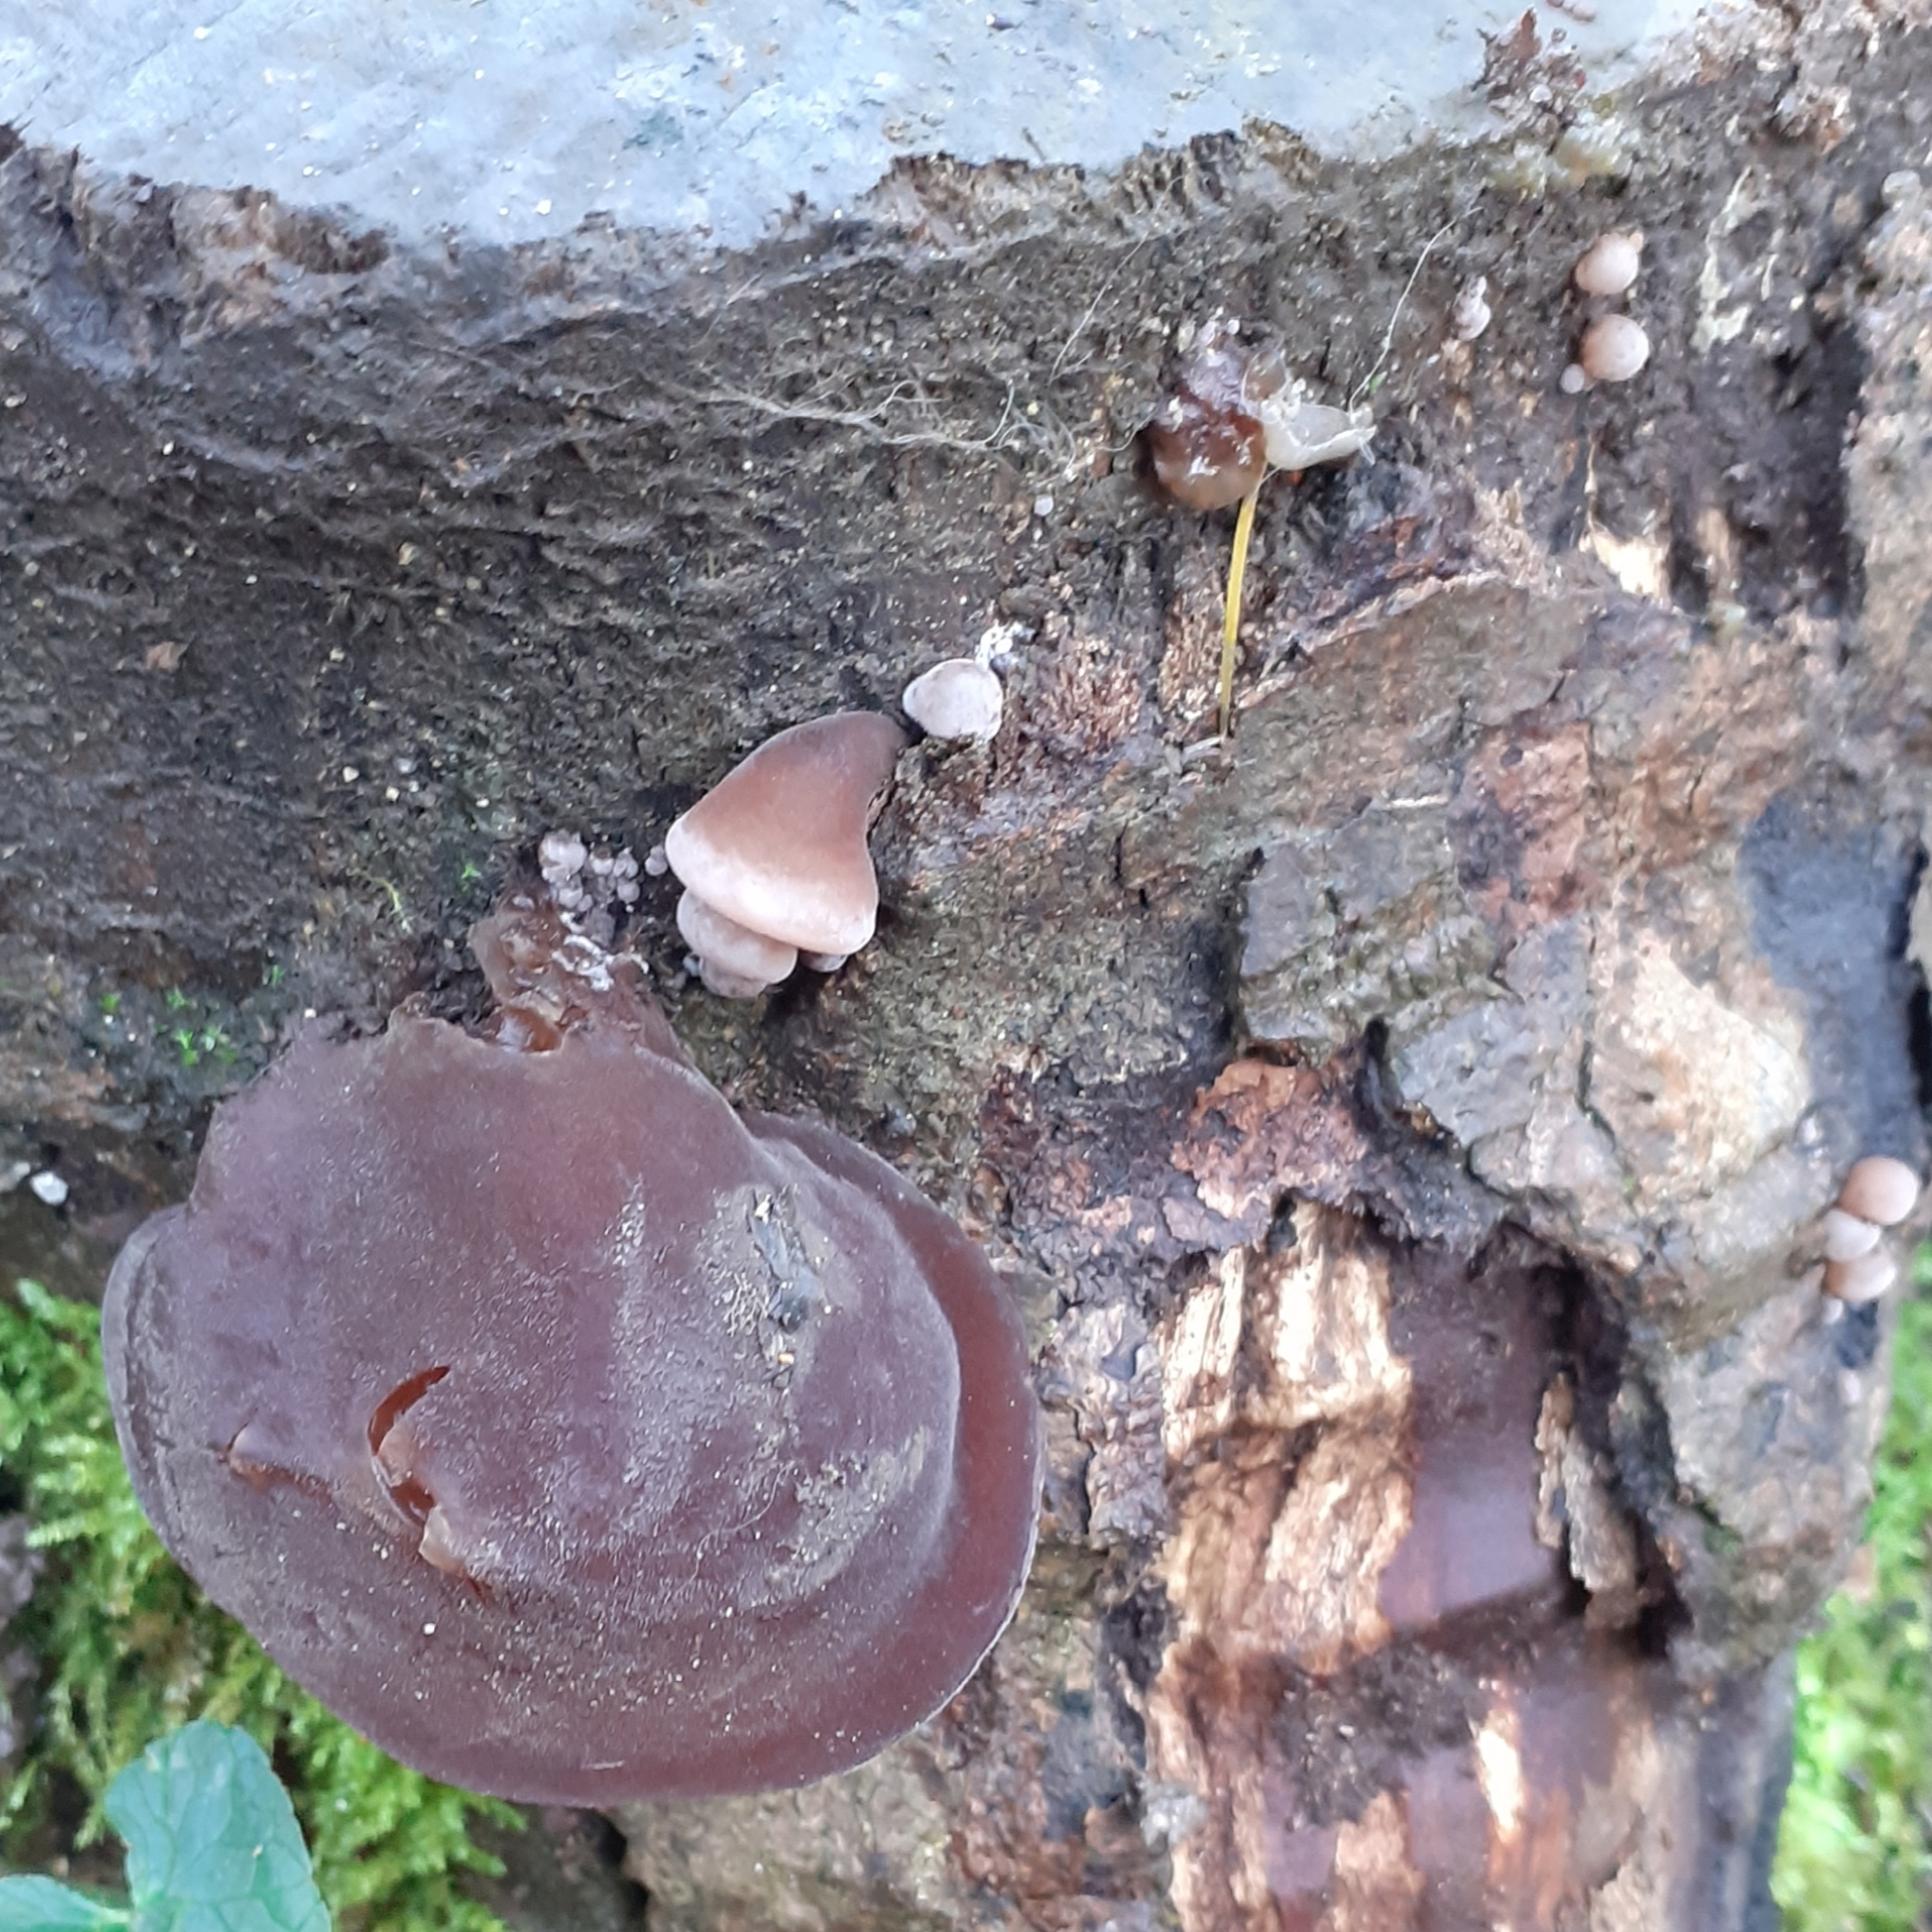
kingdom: Fungi
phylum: Basidiomycota
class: Agaricomycetes
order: Auriculariales
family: Auriculariaceae
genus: Auricularia
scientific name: Auricularia auricula-judae
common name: Jelly ear
